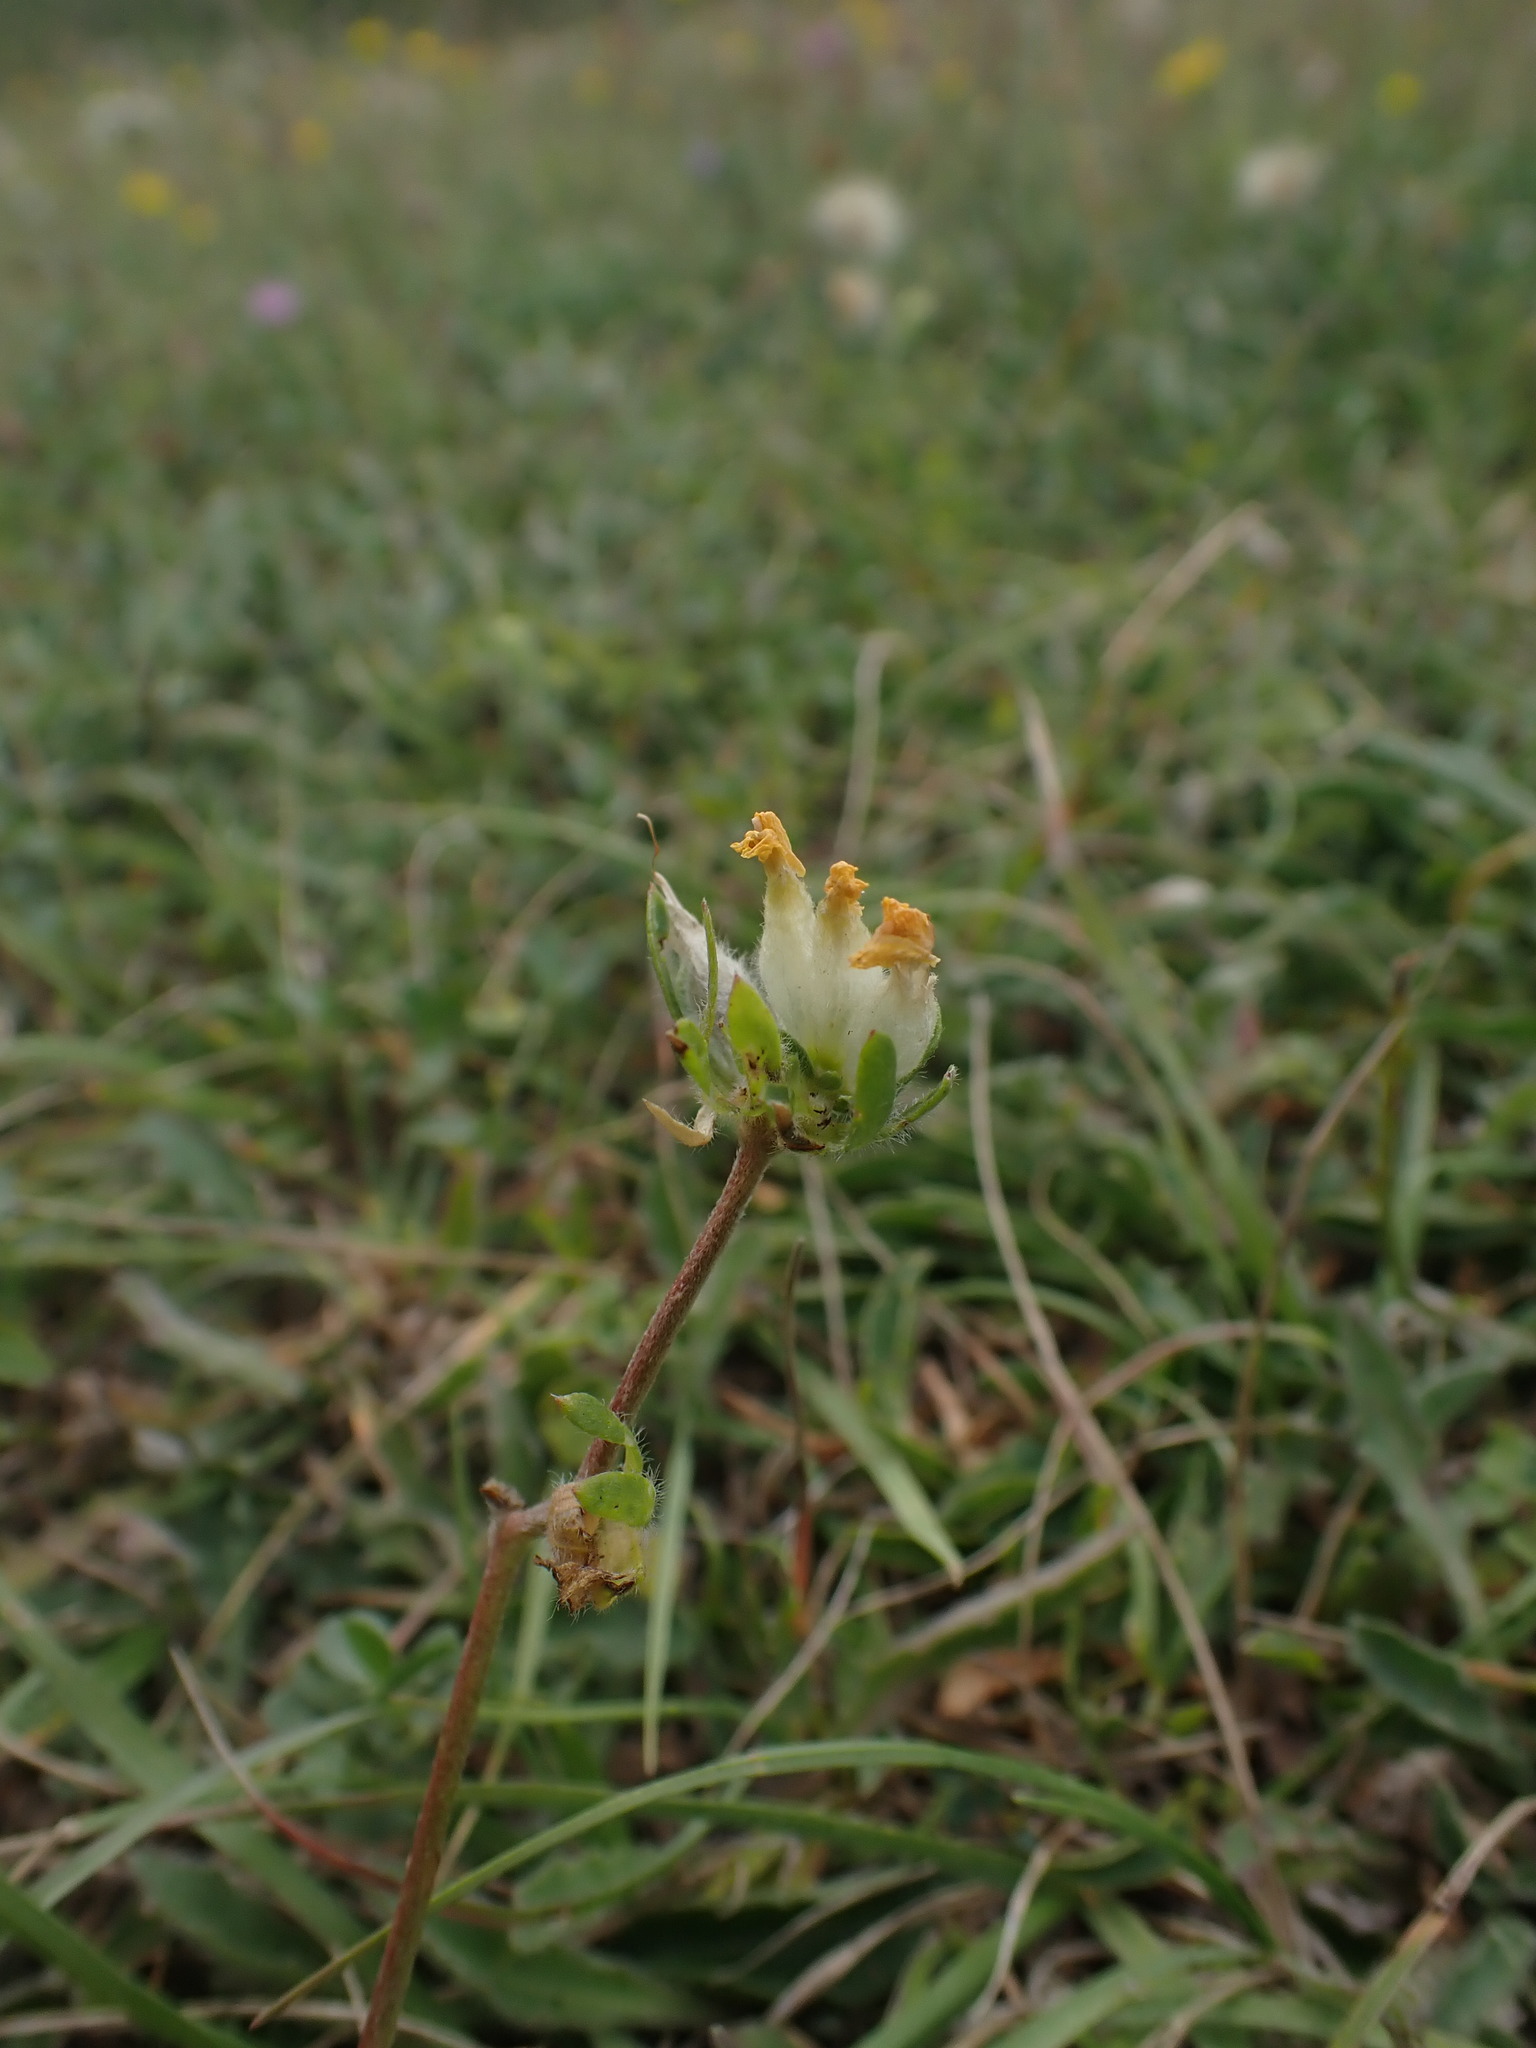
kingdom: Plantae
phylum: Tracheophyta
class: Magnoliopsida
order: Fabales
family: Fabaceae
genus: Anthyllis
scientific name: Anthyllis vulneraria
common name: Kidney vetch
